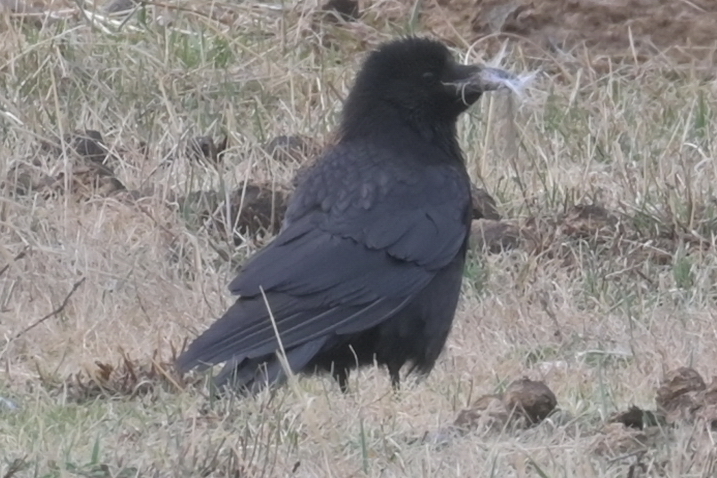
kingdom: Animalia
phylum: Chordata
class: Aves
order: Passeriformes
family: Corvidae
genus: Corvus
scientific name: Corvus corone
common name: Carrion crow
